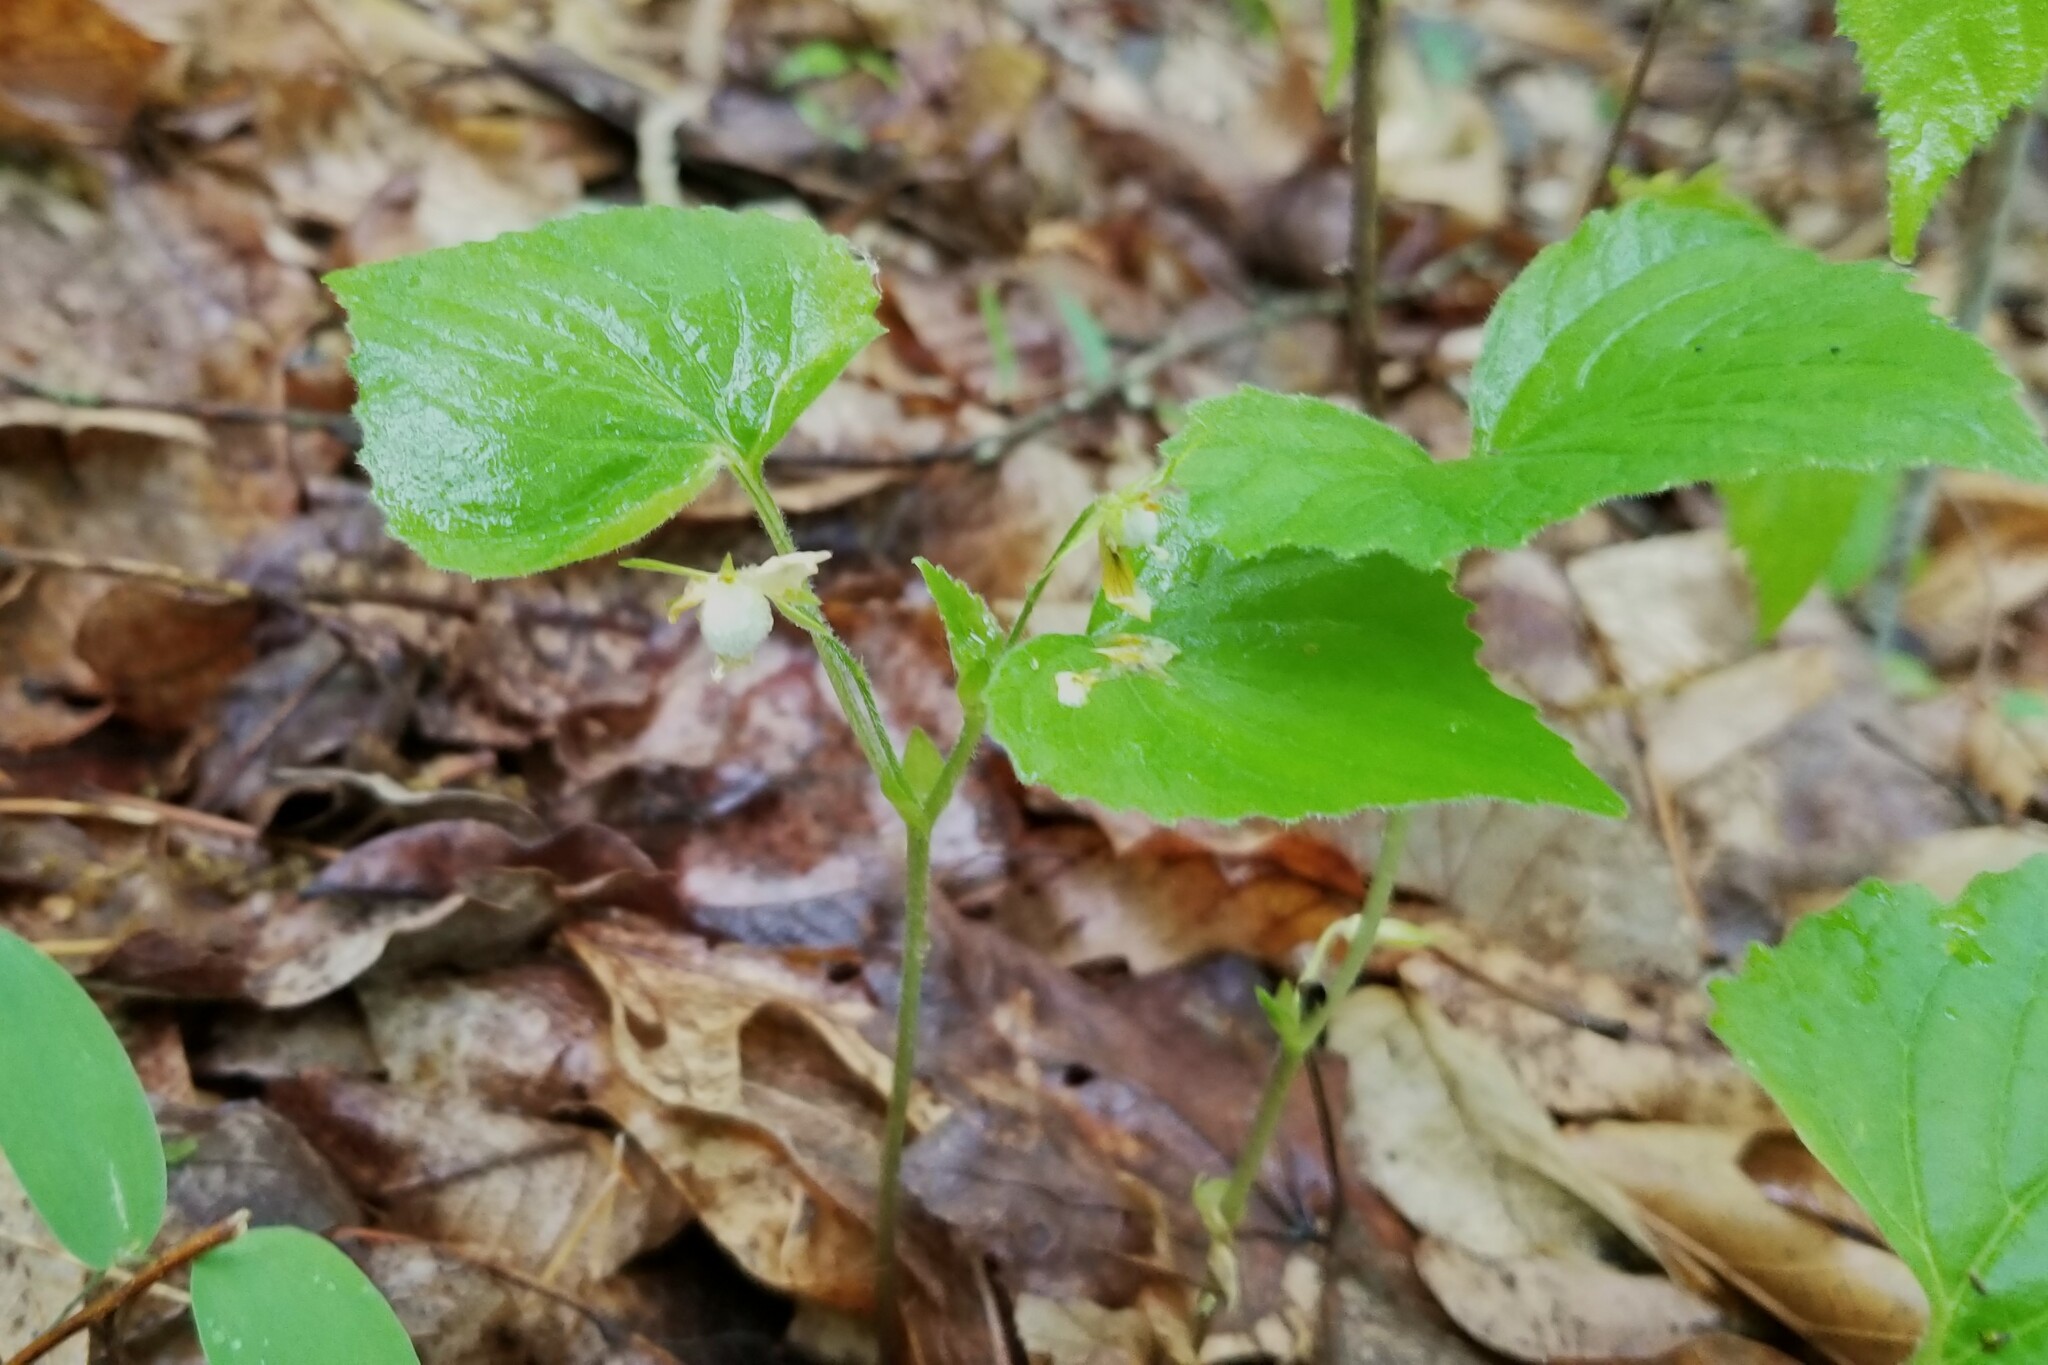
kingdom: Plantae
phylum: Tracheophyta
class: Magnoliopsida
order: Malpighiales
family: Violaceae
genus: Viola
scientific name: Viola pubescens
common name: Yellow forest violet
